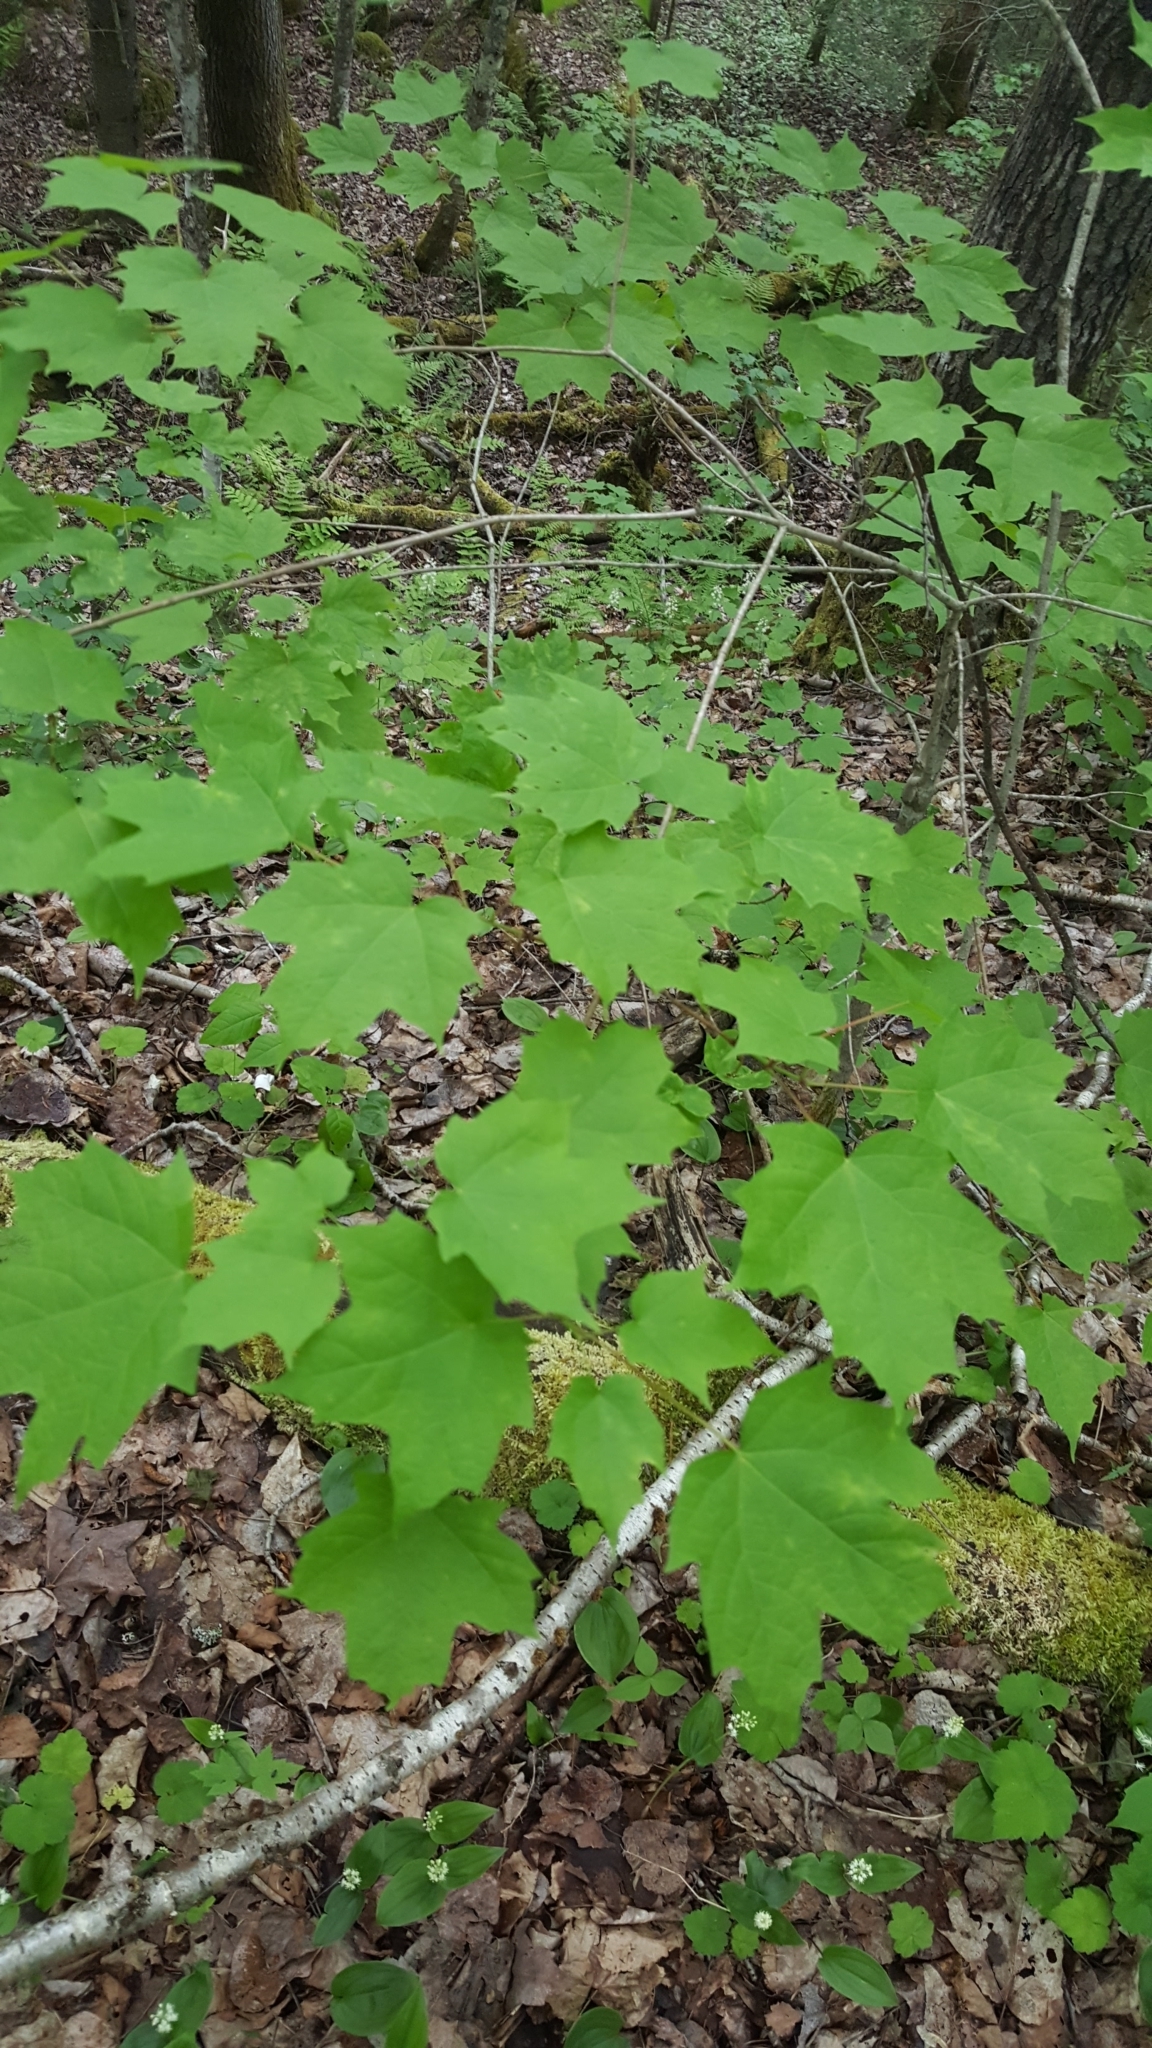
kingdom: Plantae
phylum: Tracheophyta
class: Magnoliopsida
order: Sapindales
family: Sapindaceae
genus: Acer
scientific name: Acer saccharum
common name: Sugar maple
